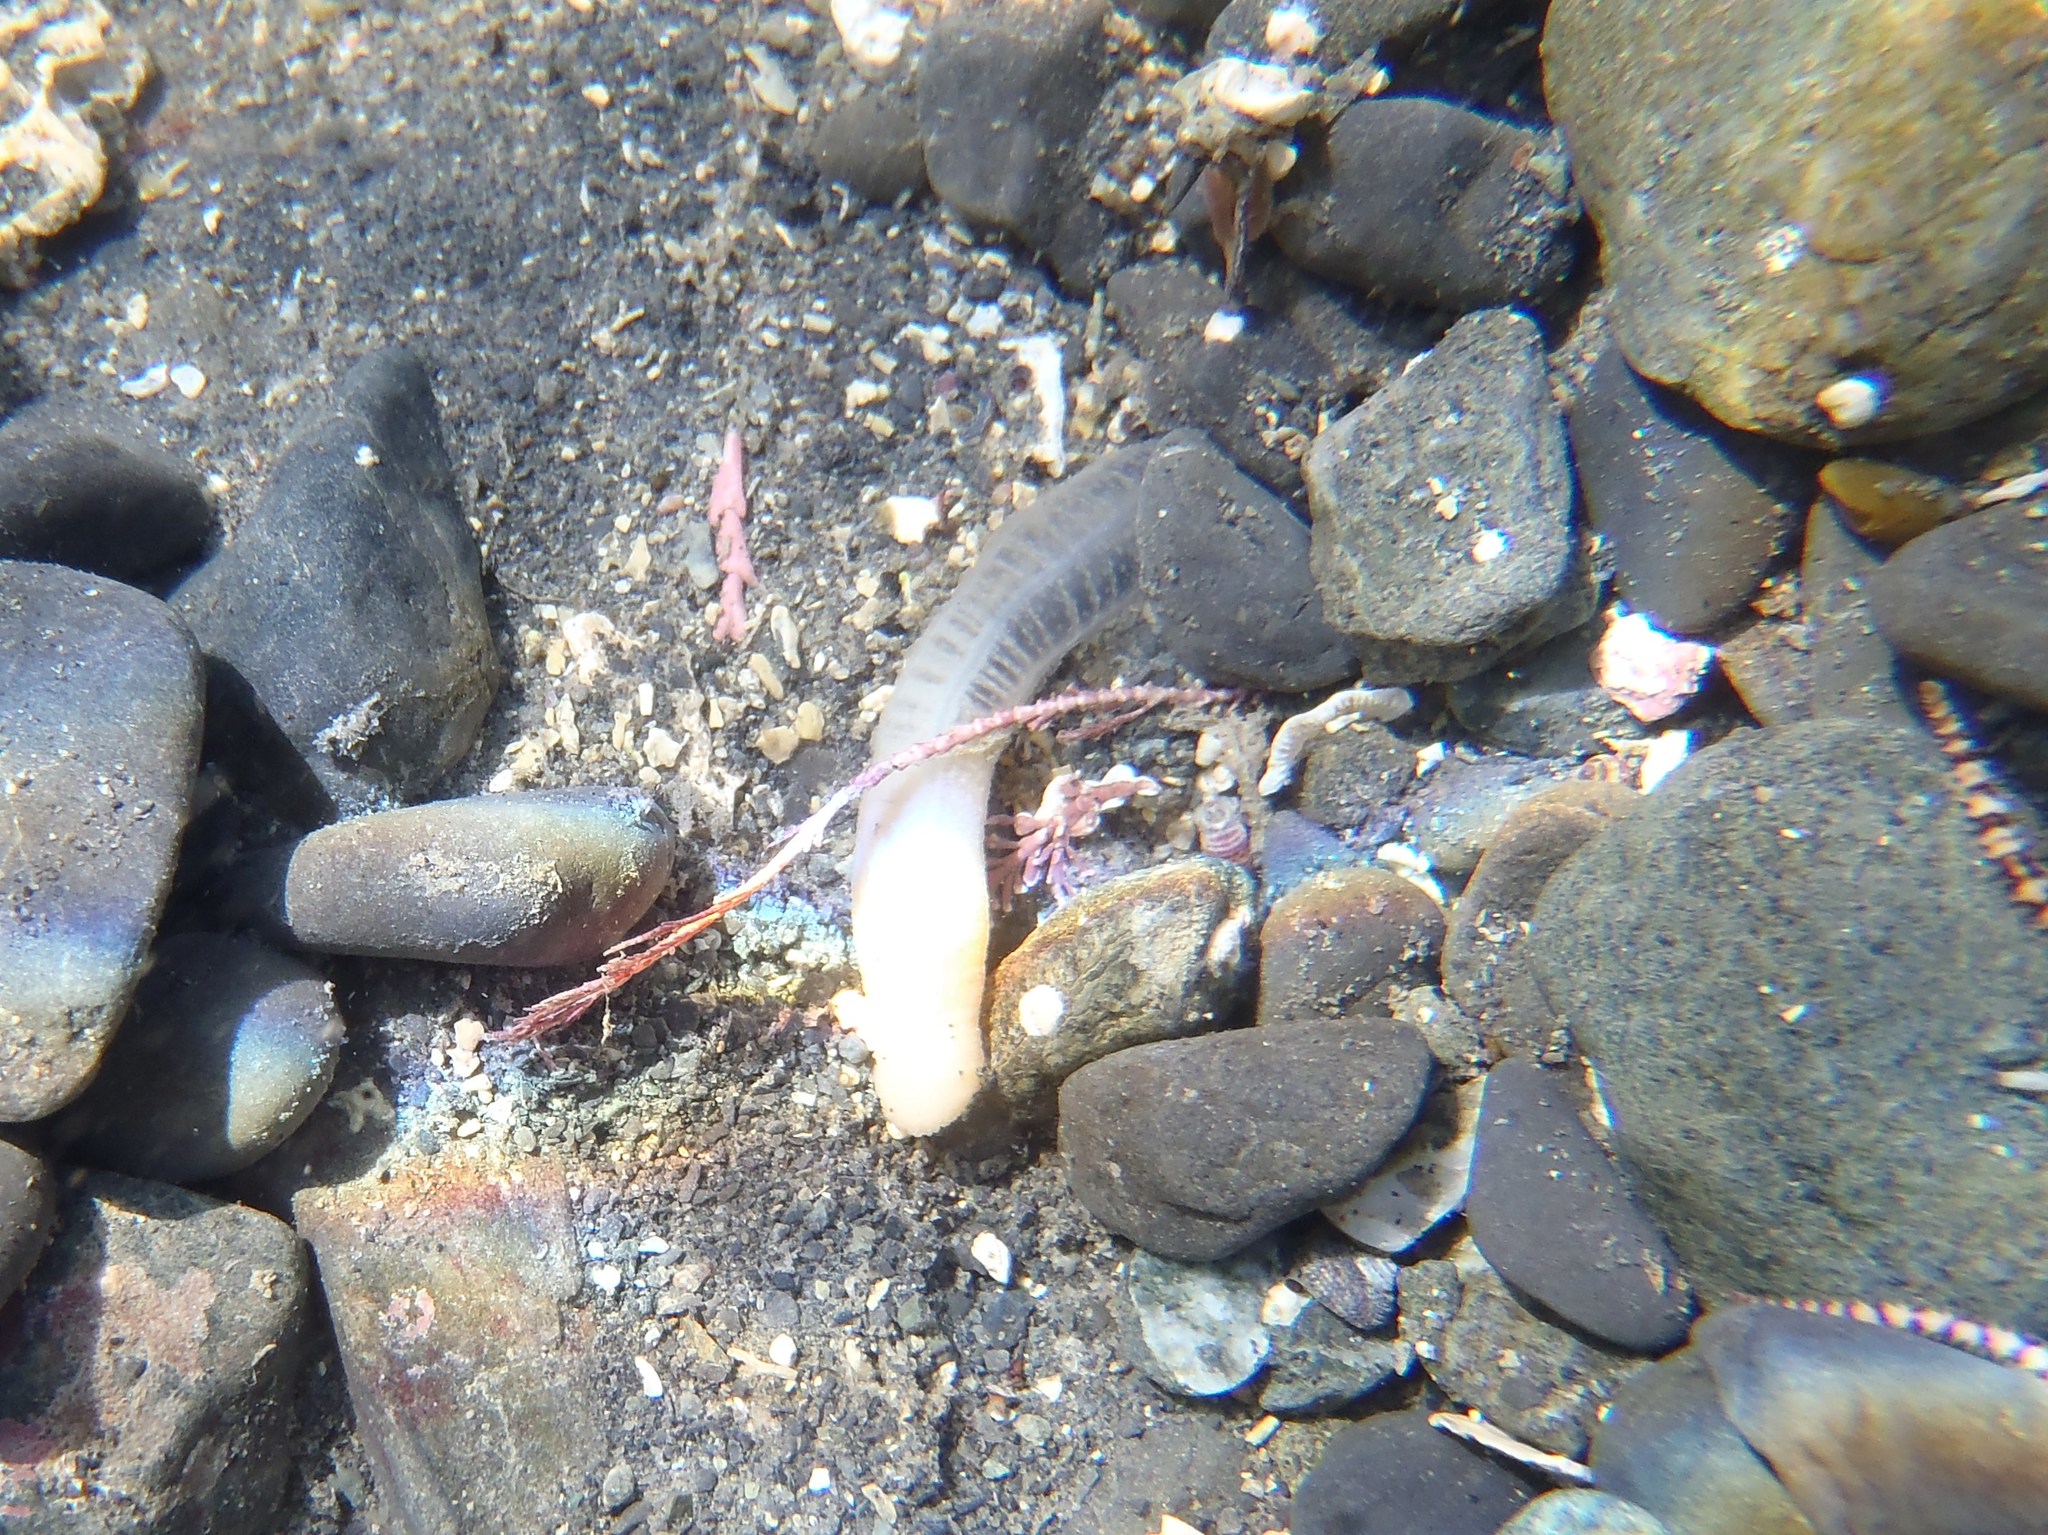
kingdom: Animalia
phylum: Echinodermata
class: Holothuroidea
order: Apodida
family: Chiridotidae
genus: Taeniogyrus
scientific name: Taeniogyrus dunedinensis
